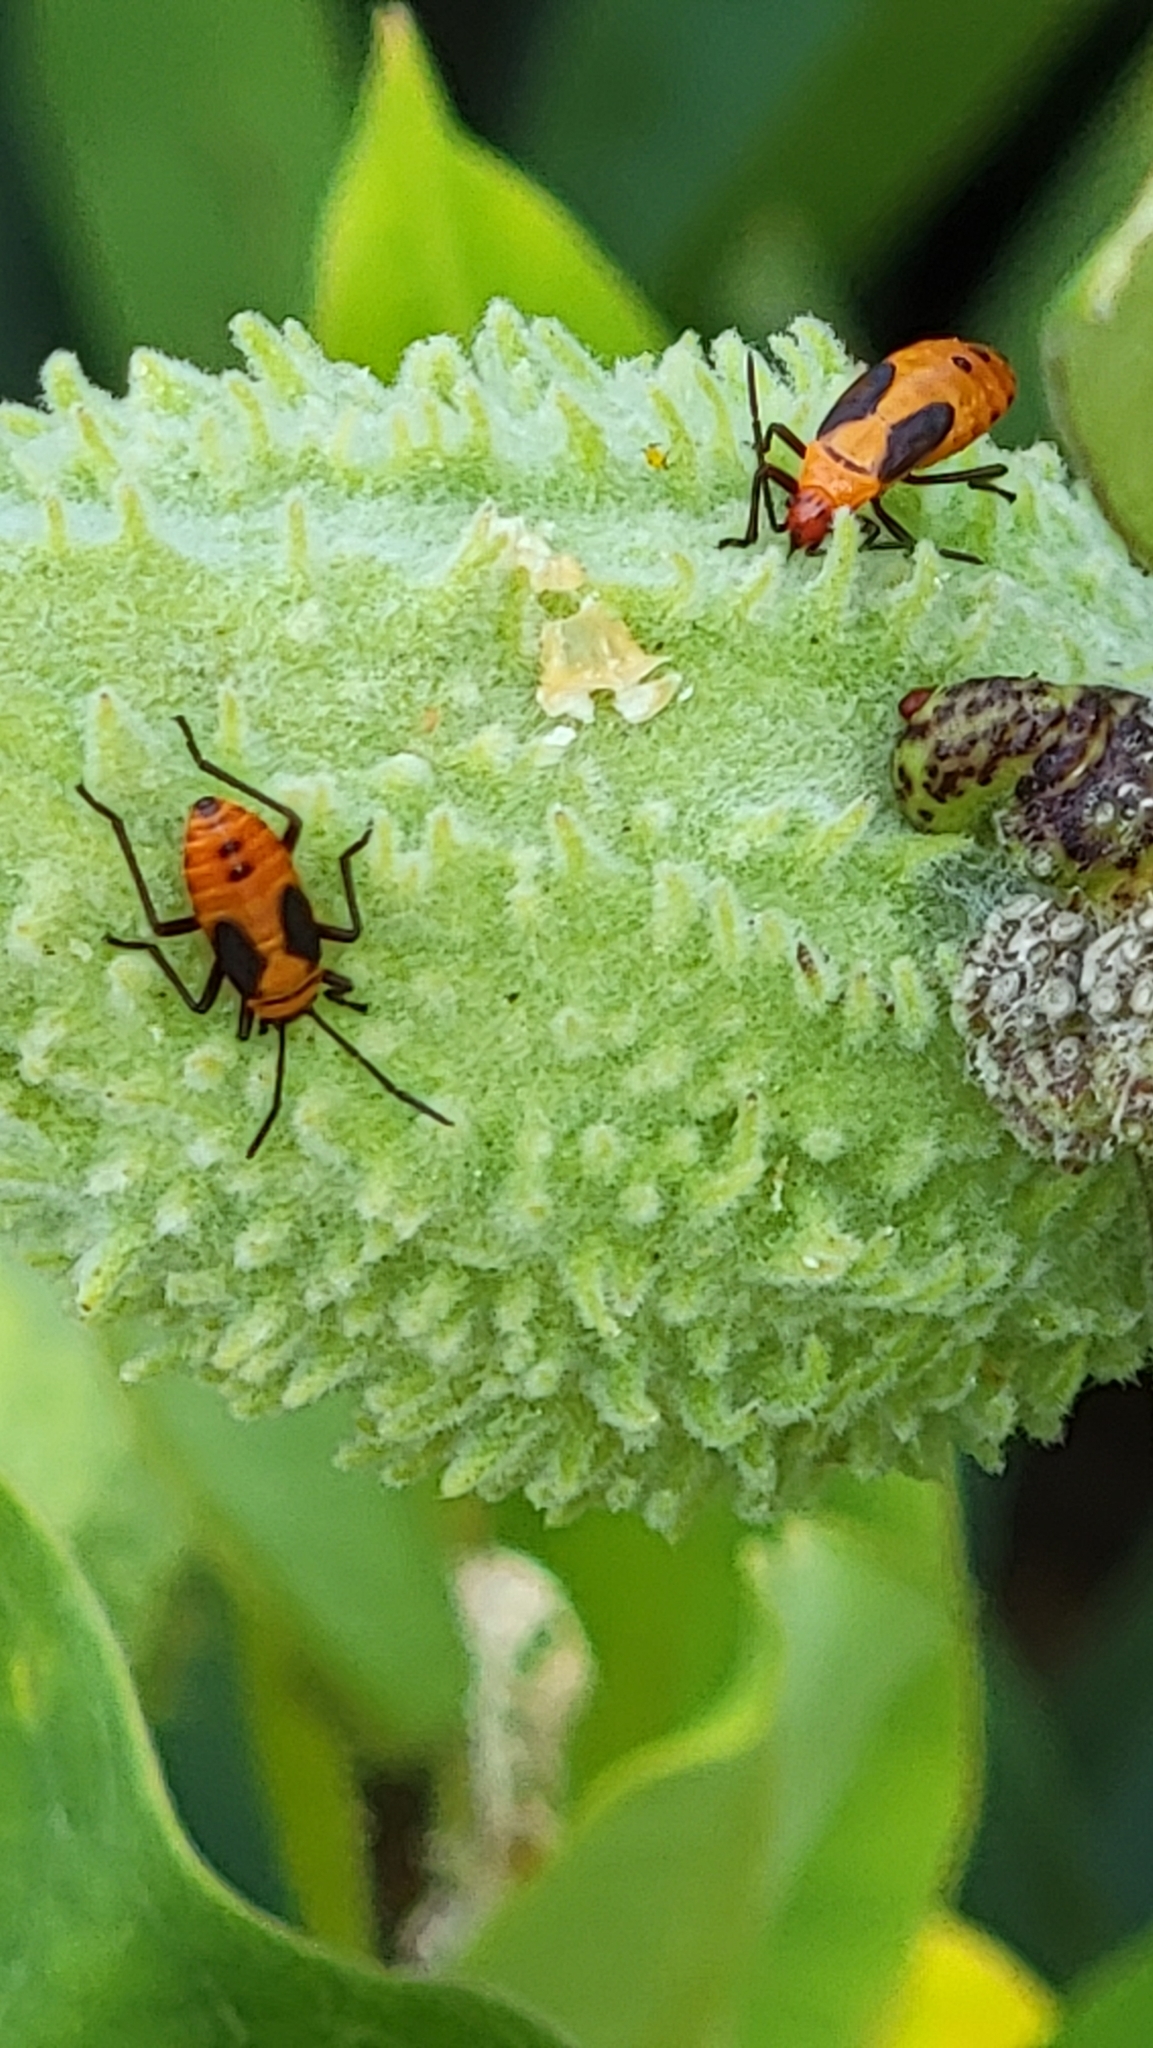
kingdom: Animalia
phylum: Arthropoda
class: Insecta
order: Hemiptera
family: Lygaeidae
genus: Oncopeltus
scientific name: Oncopeltus fasciatus
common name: Large milkweed bug
